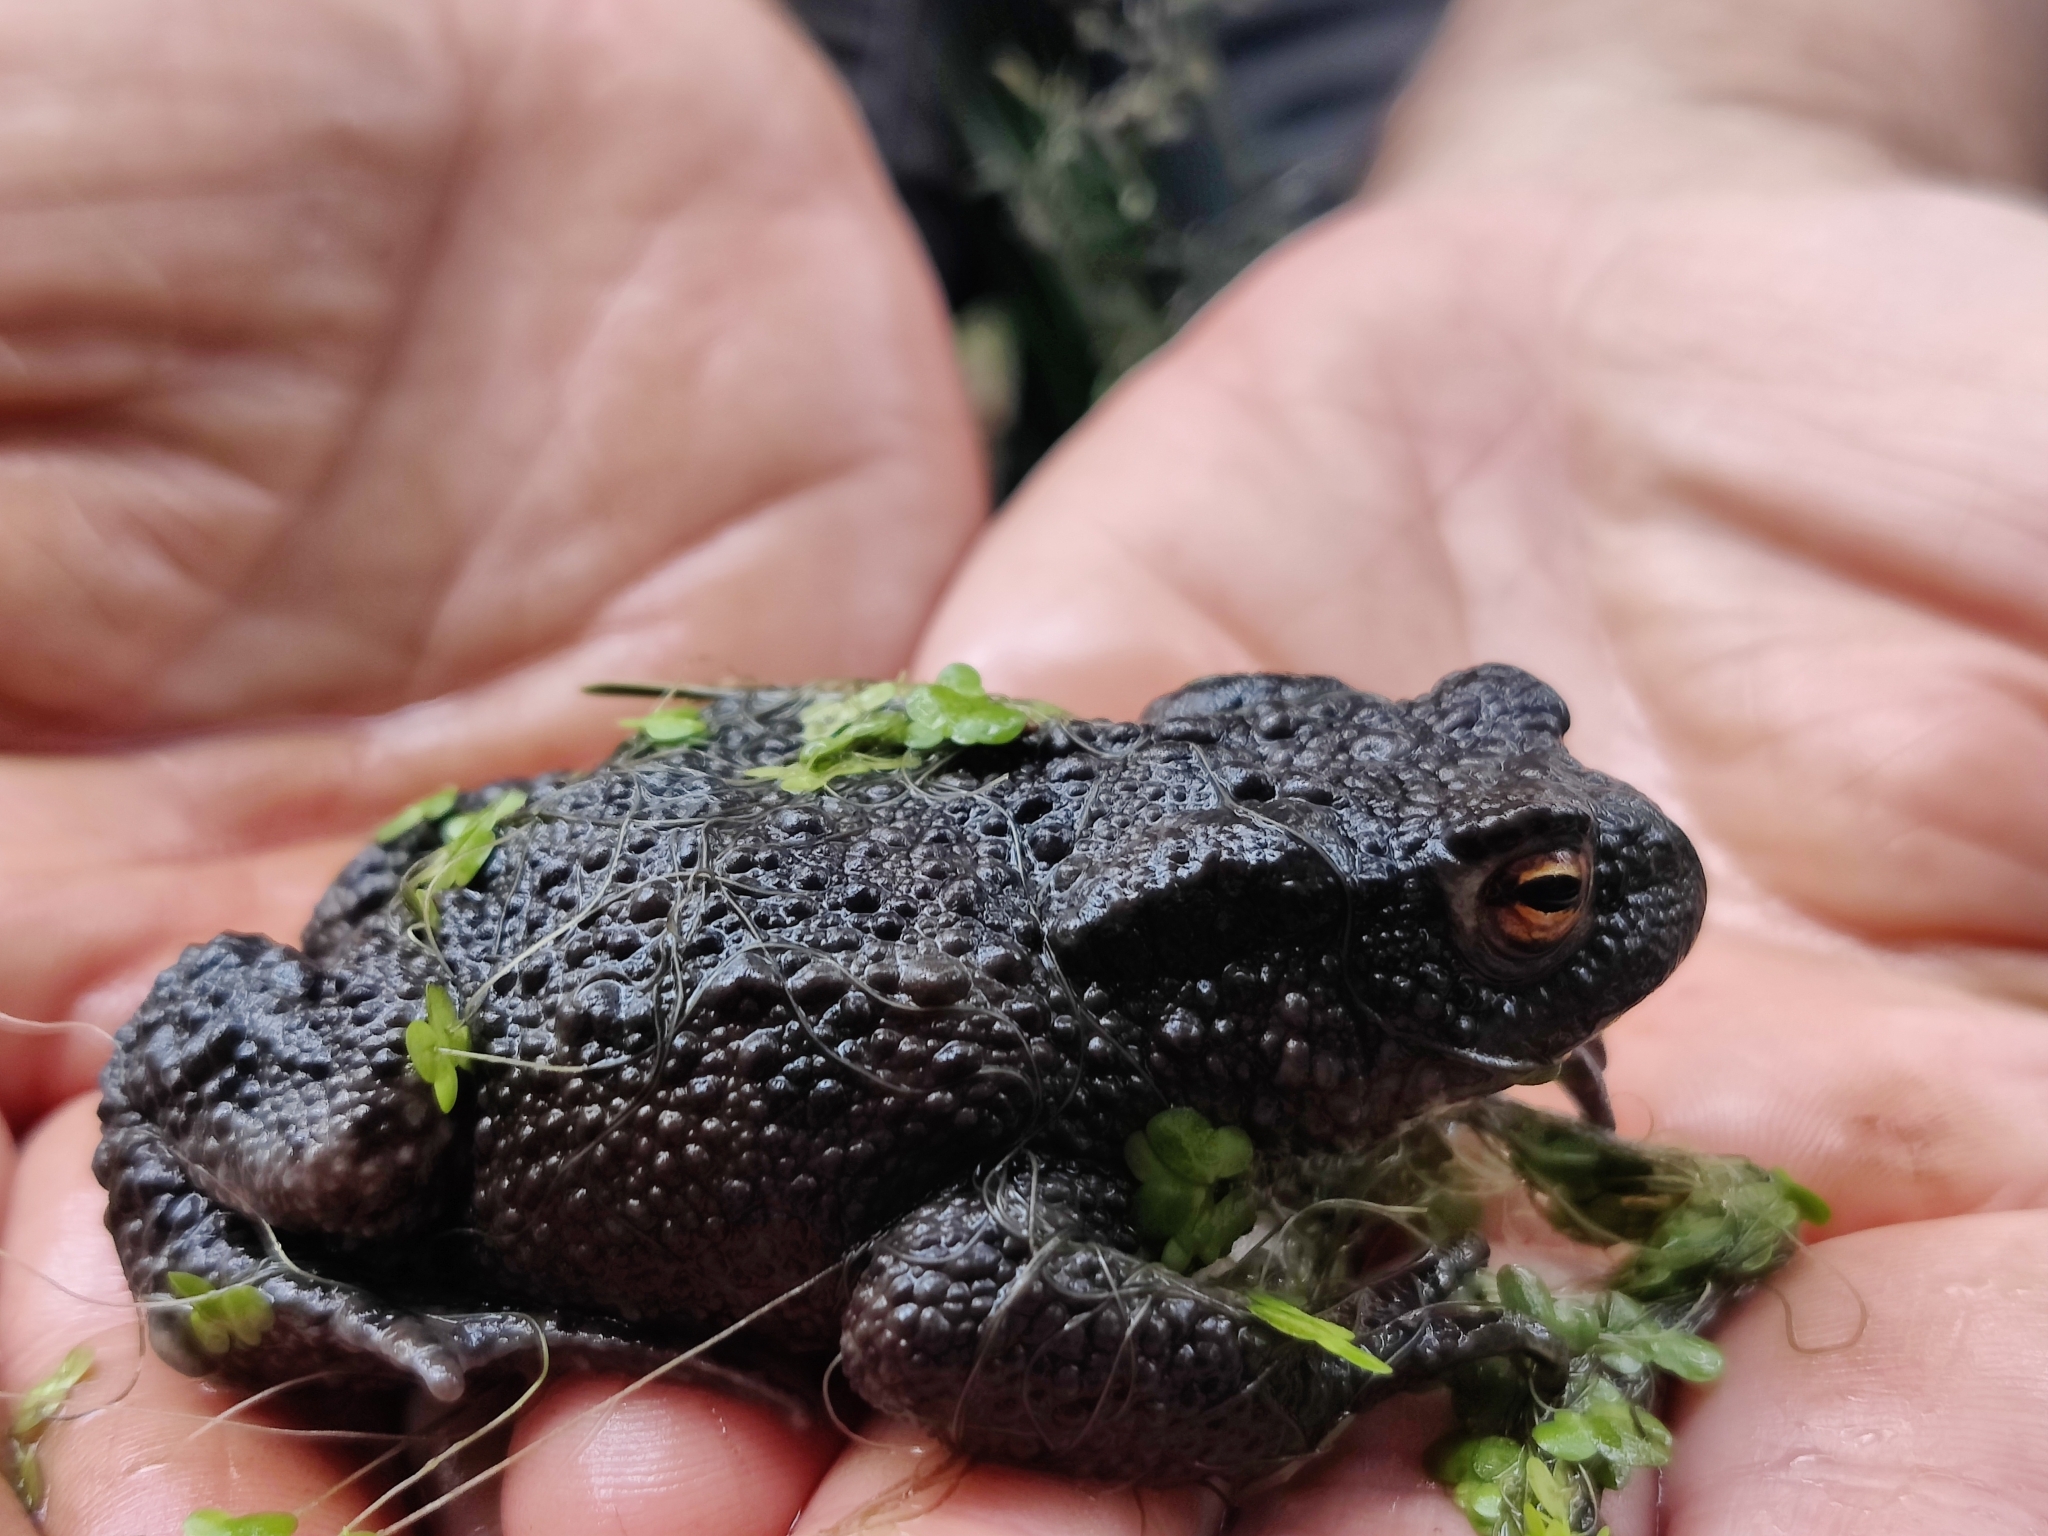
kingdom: Animalia
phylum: Chordata
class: Amphibia
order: Anura
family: Bufonidae
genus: Bufo
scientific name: Bufo bufo
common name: Common toad
